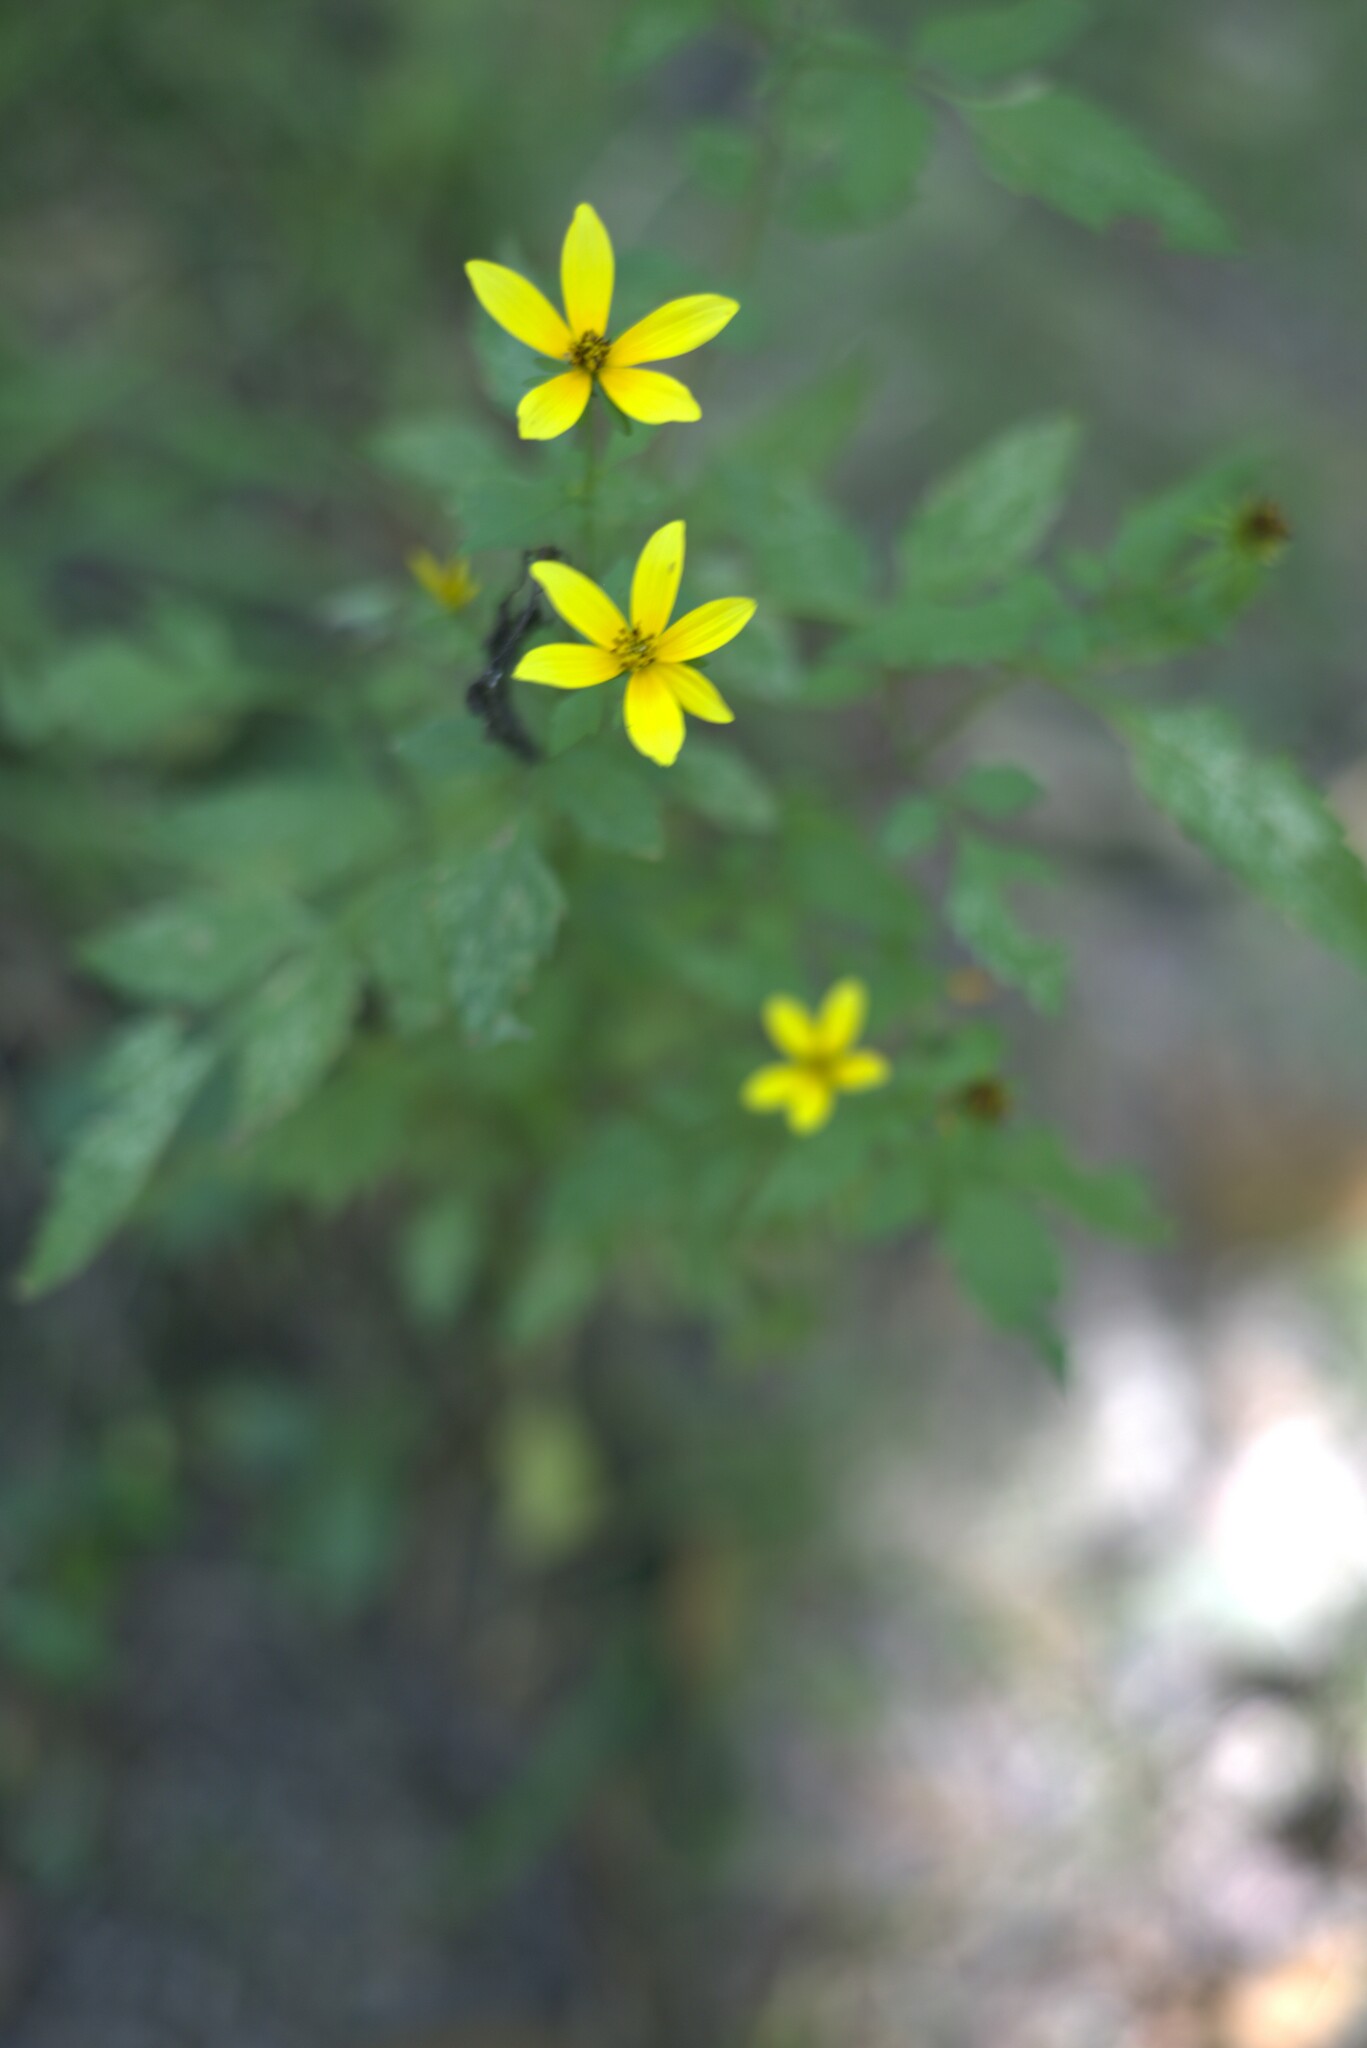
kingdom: Plantae
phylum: Tracheophyta
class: Magnoliopsida
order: Asterales
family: Asteraceae
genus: Bidens
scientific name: Bidens aristosa
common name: Western tickseed
